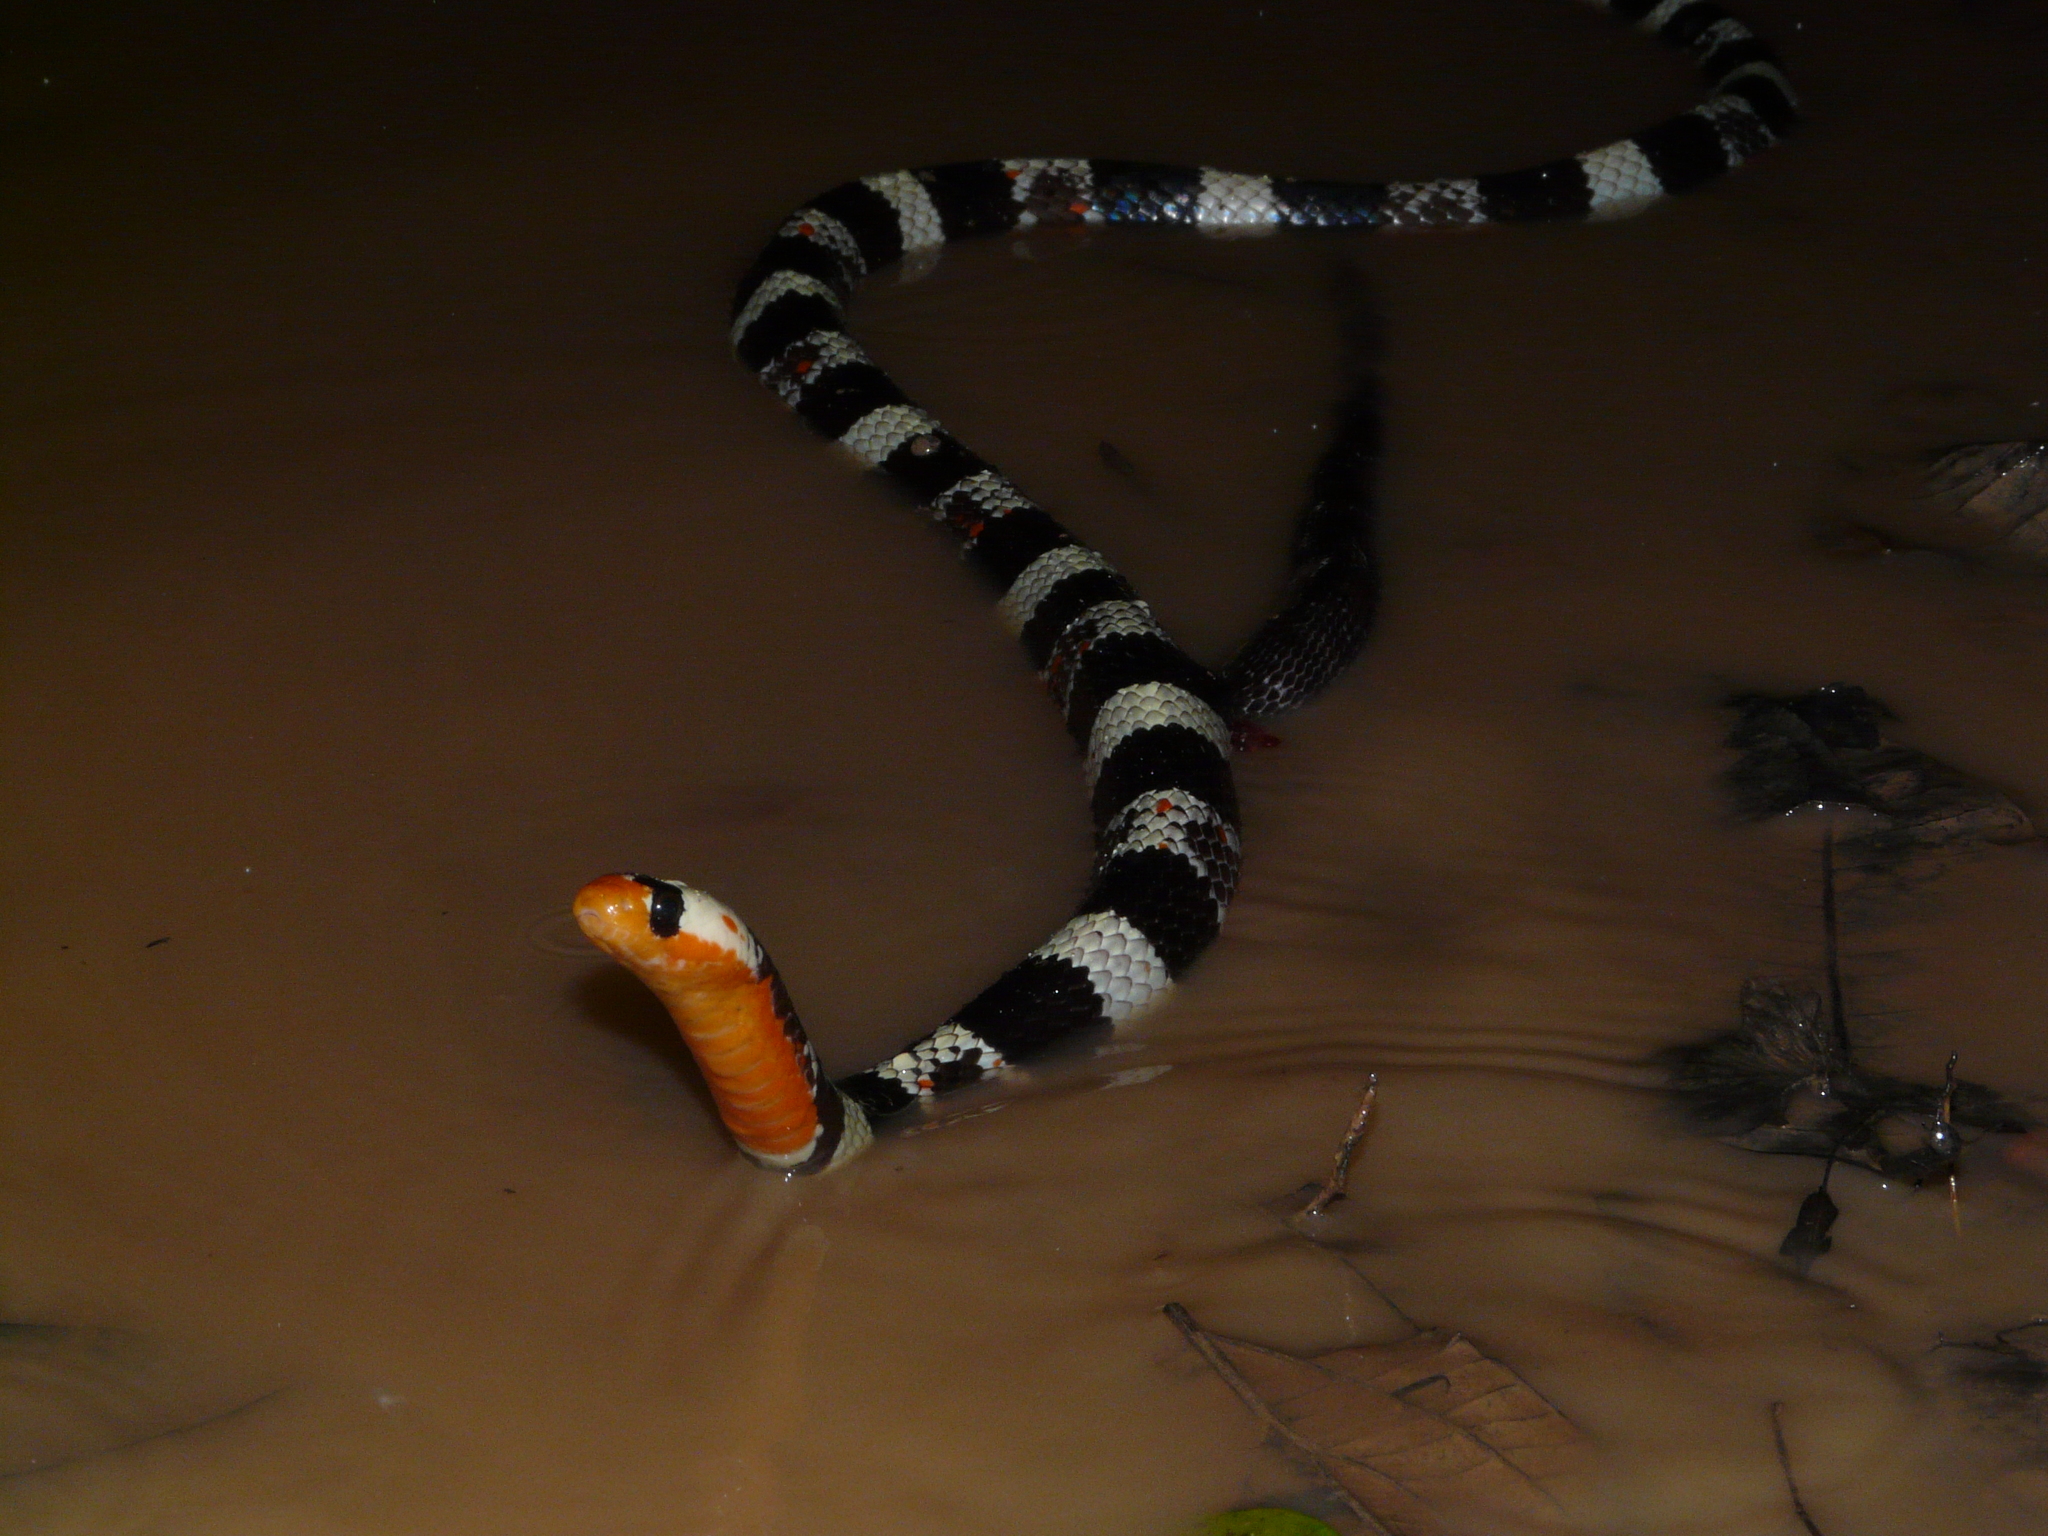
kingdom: Animalia
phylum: Chordata
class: Squamata
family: Colubridae
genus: Erythrolamprus
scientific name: Erythrolamprus aesculapii
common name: Aesculapian false coral snake
